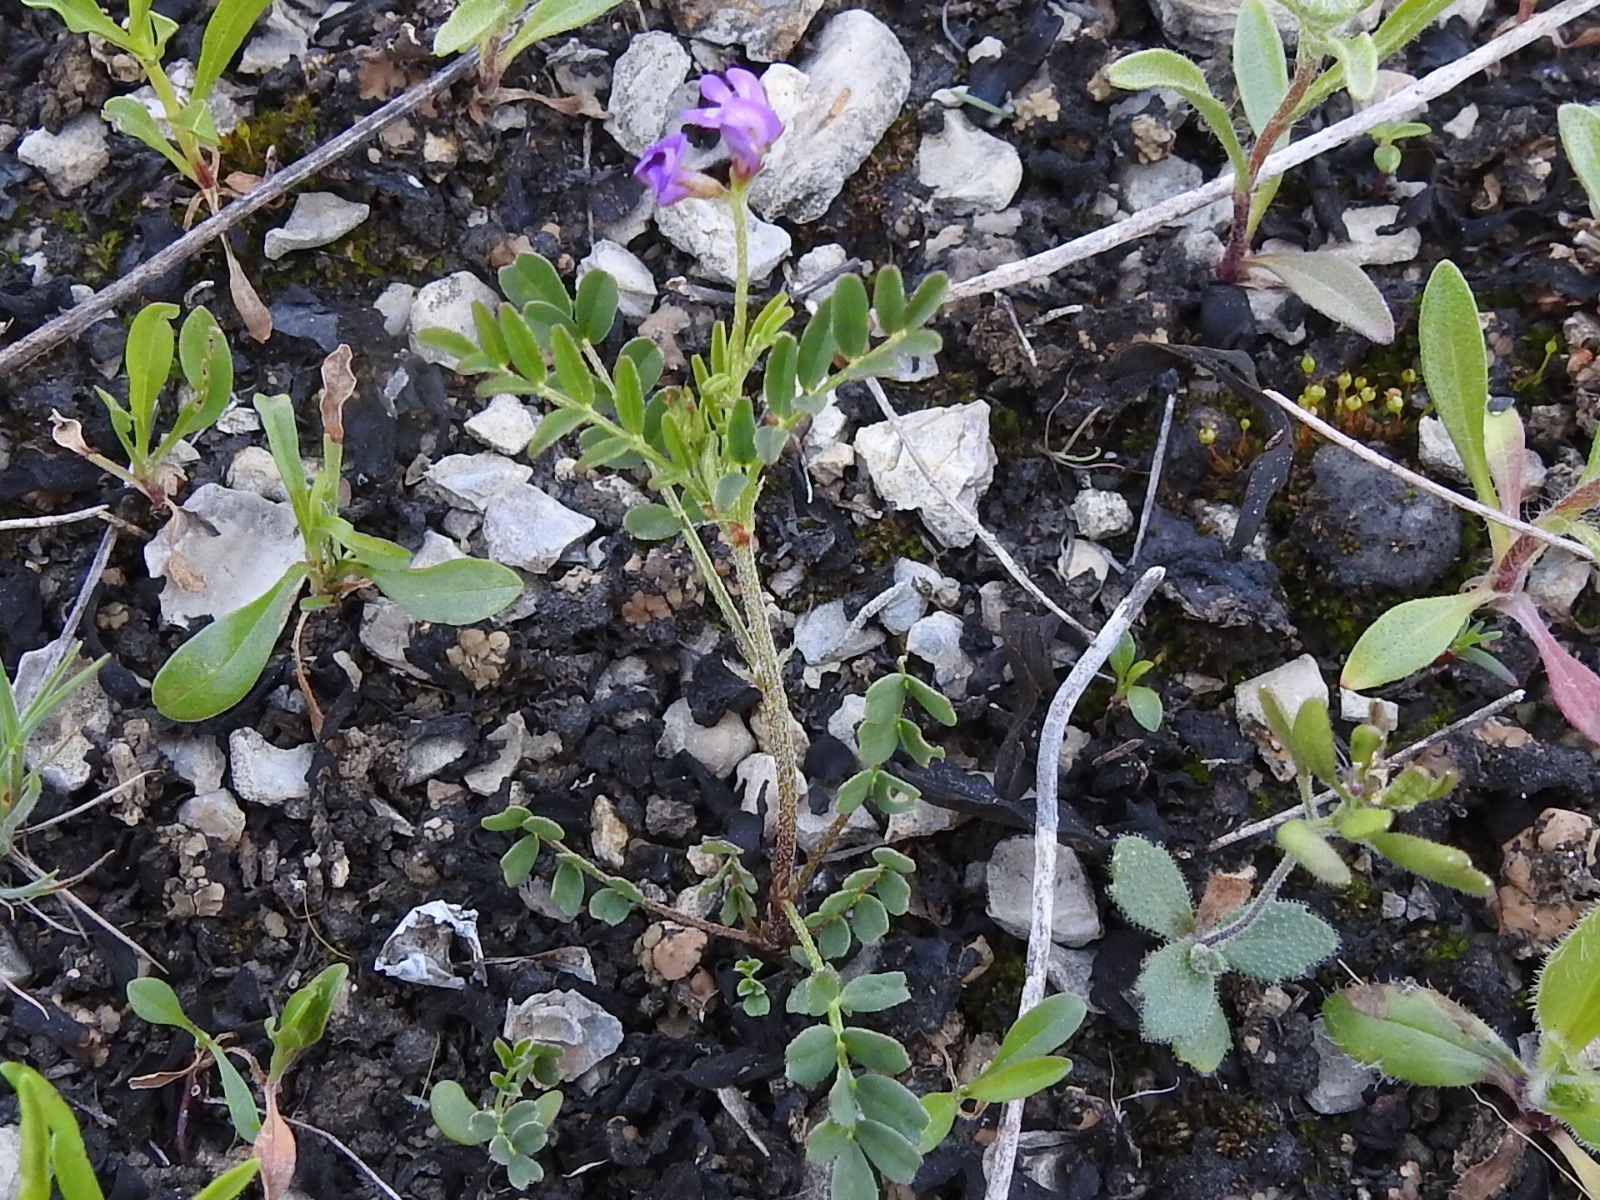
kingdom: Plantae
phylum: Tracheophyta
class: Magnoliopsida
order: Fabales
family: Fabaceae
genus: Astragalus
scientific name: Astragalus nuttallianus
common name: Smallflowered milkvetch
